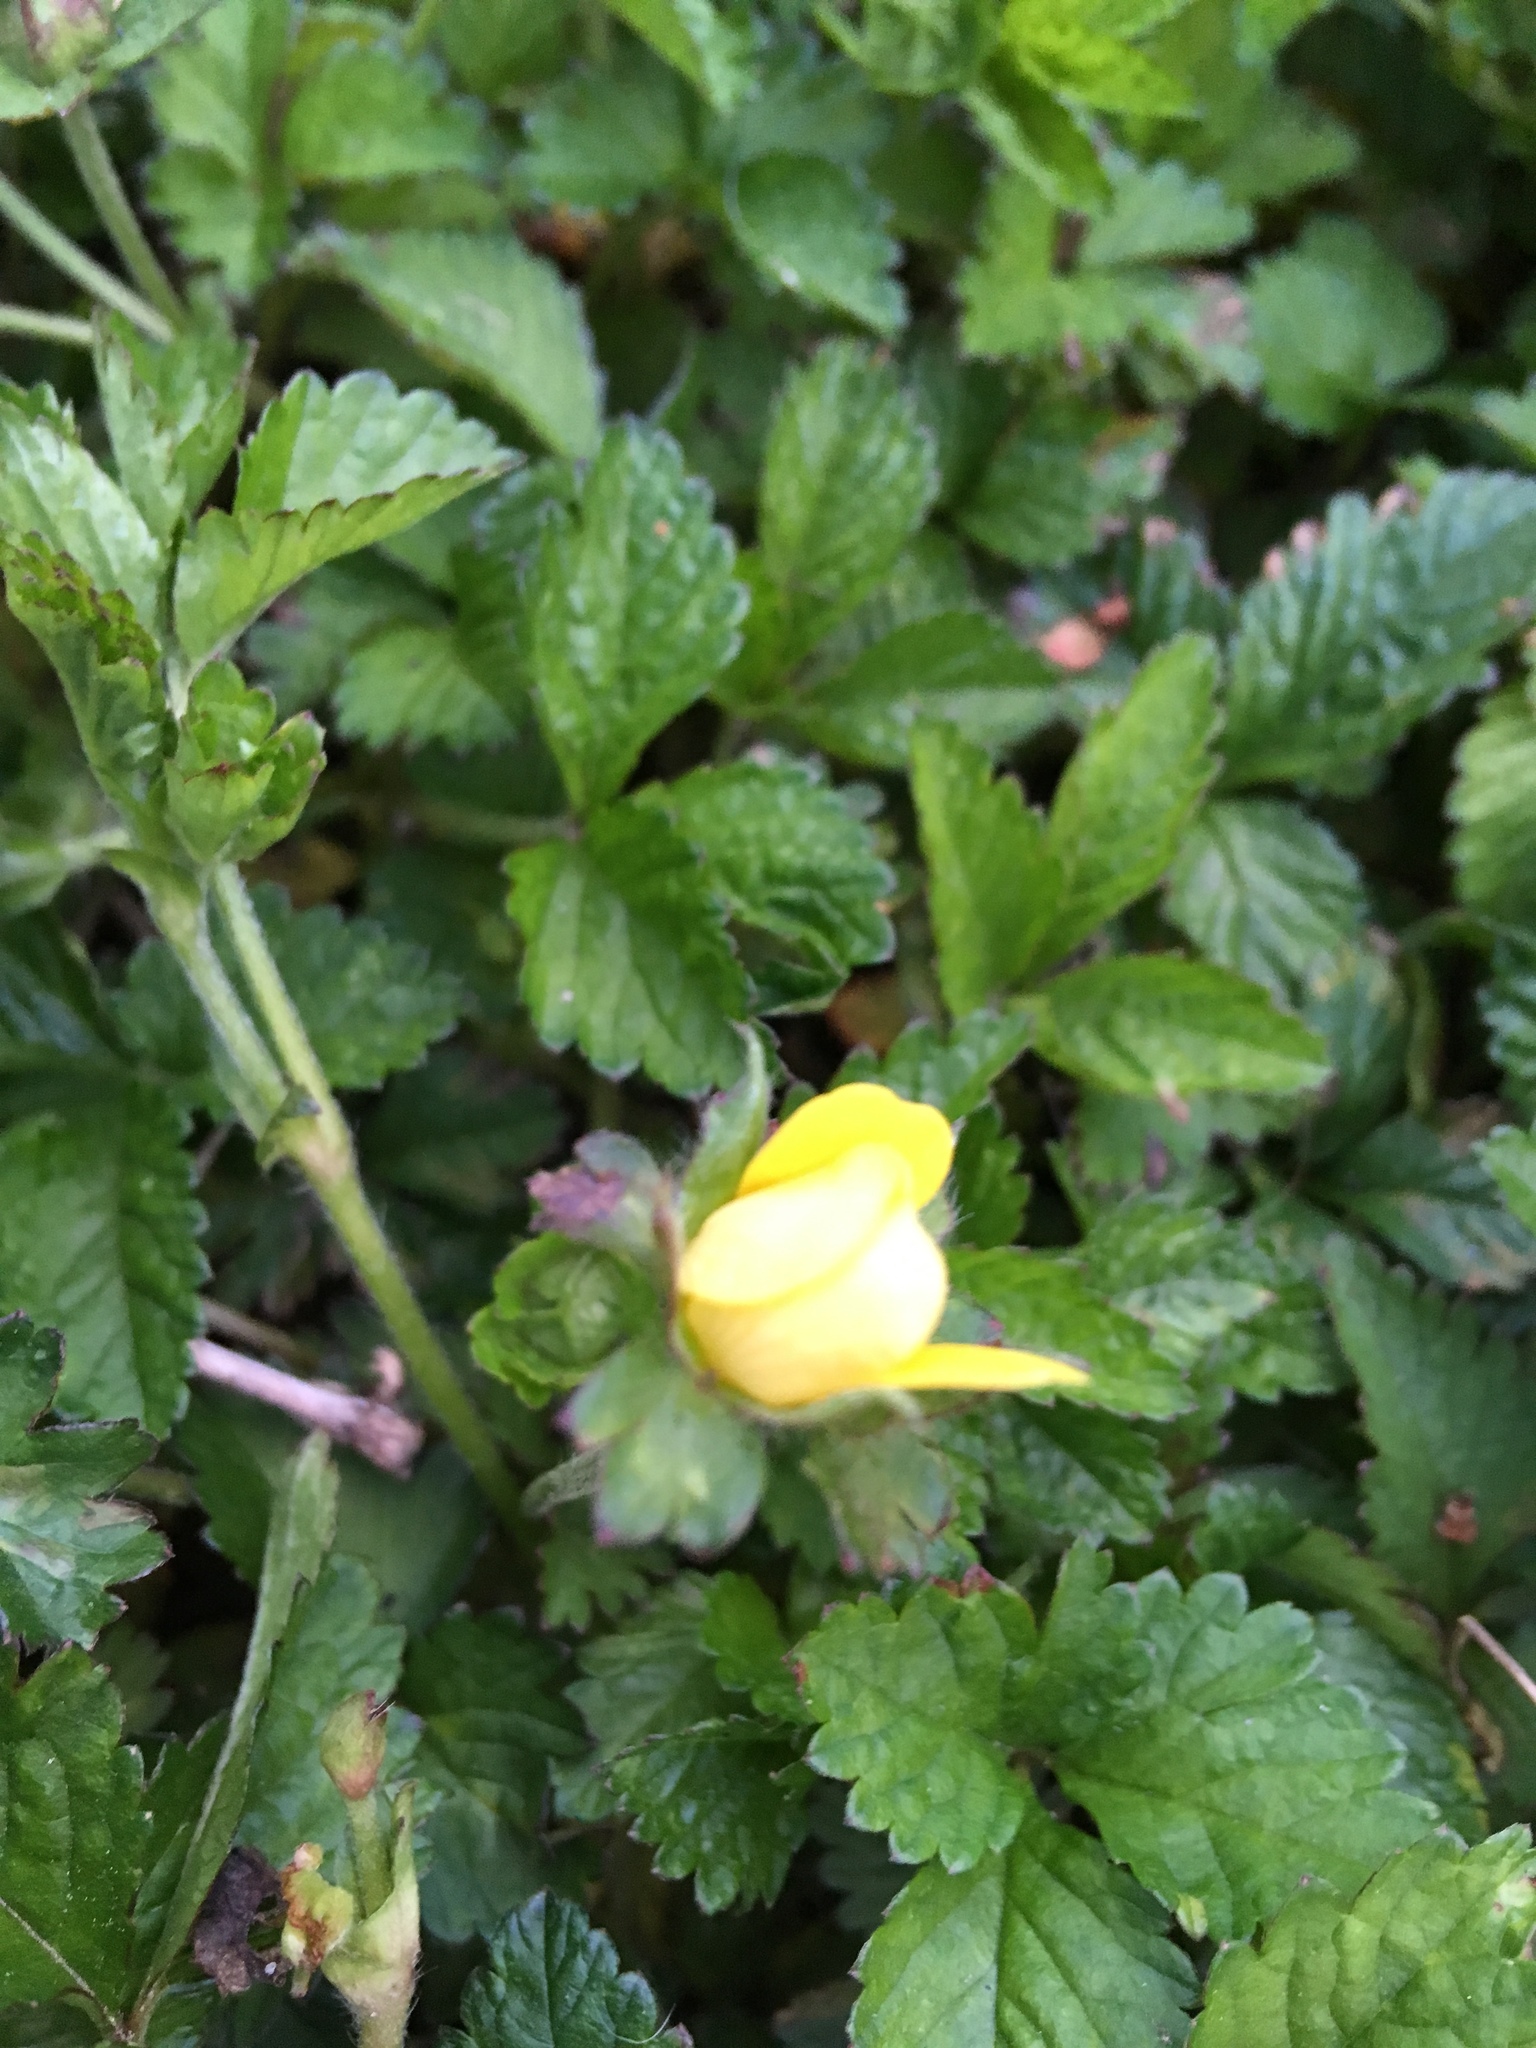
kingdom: Plantae
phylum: Tracheophyta
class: Magnoliopsida
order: Rosales
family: Rosaceae
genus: Potentilla
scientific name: Potentilla indica
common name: Yellow-flowered strawberry
